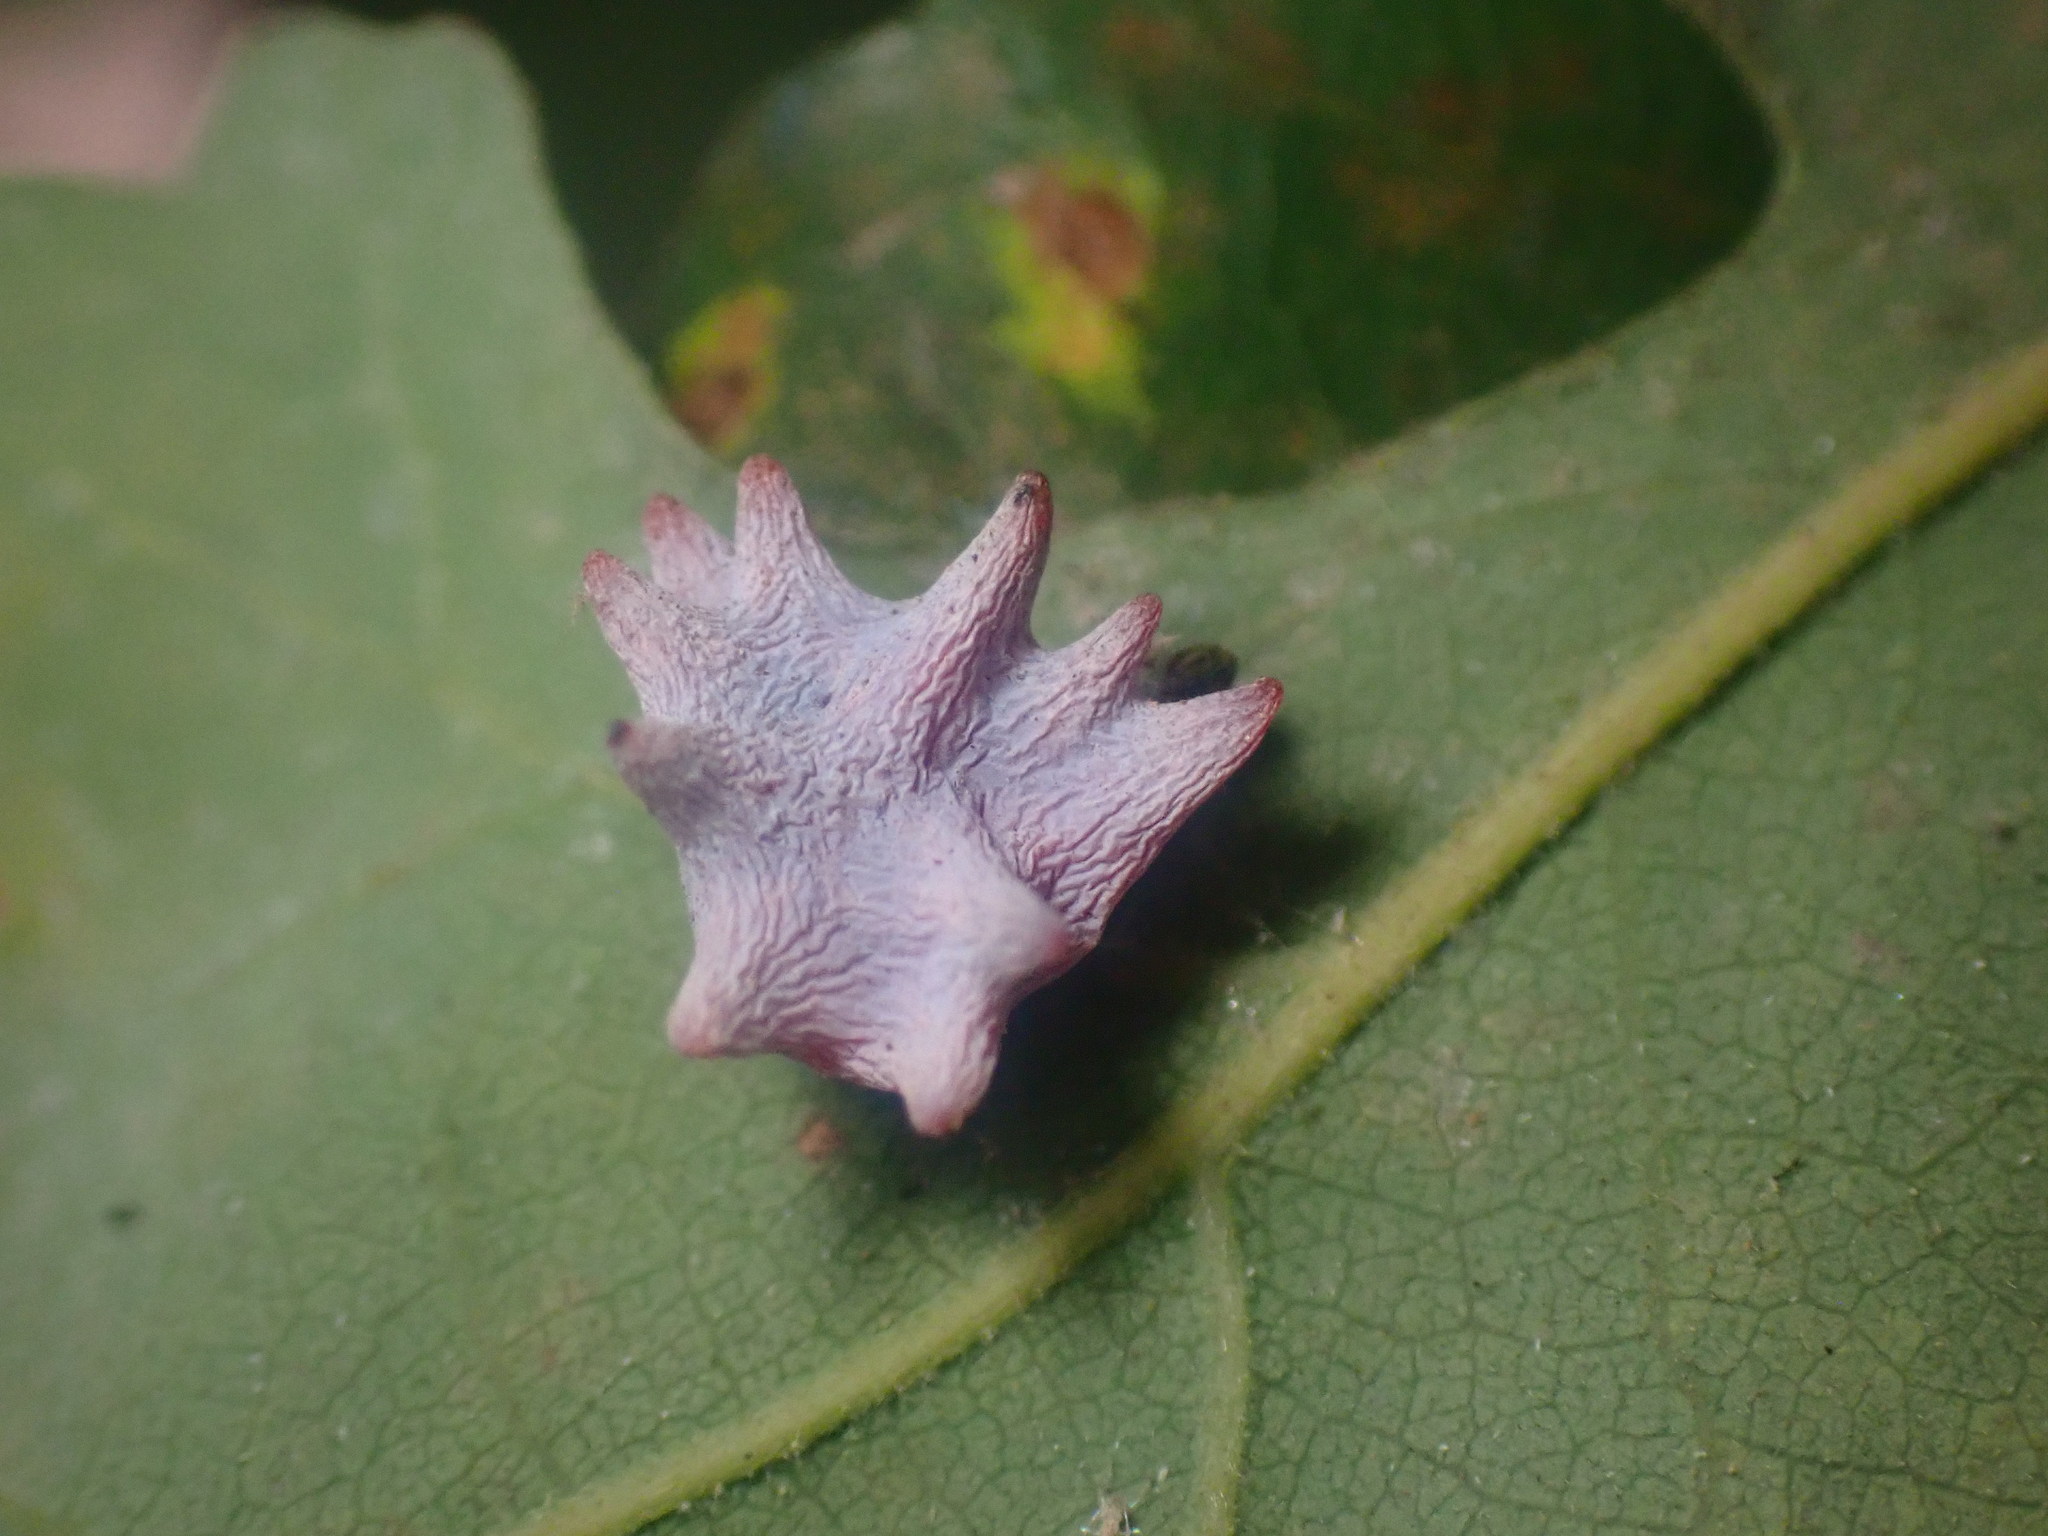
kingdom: Animalia
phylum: Arthropoda
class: Insecta
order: Hymenoptera
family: Cynipidae
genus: Cynips
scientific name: Cynips douglasi
